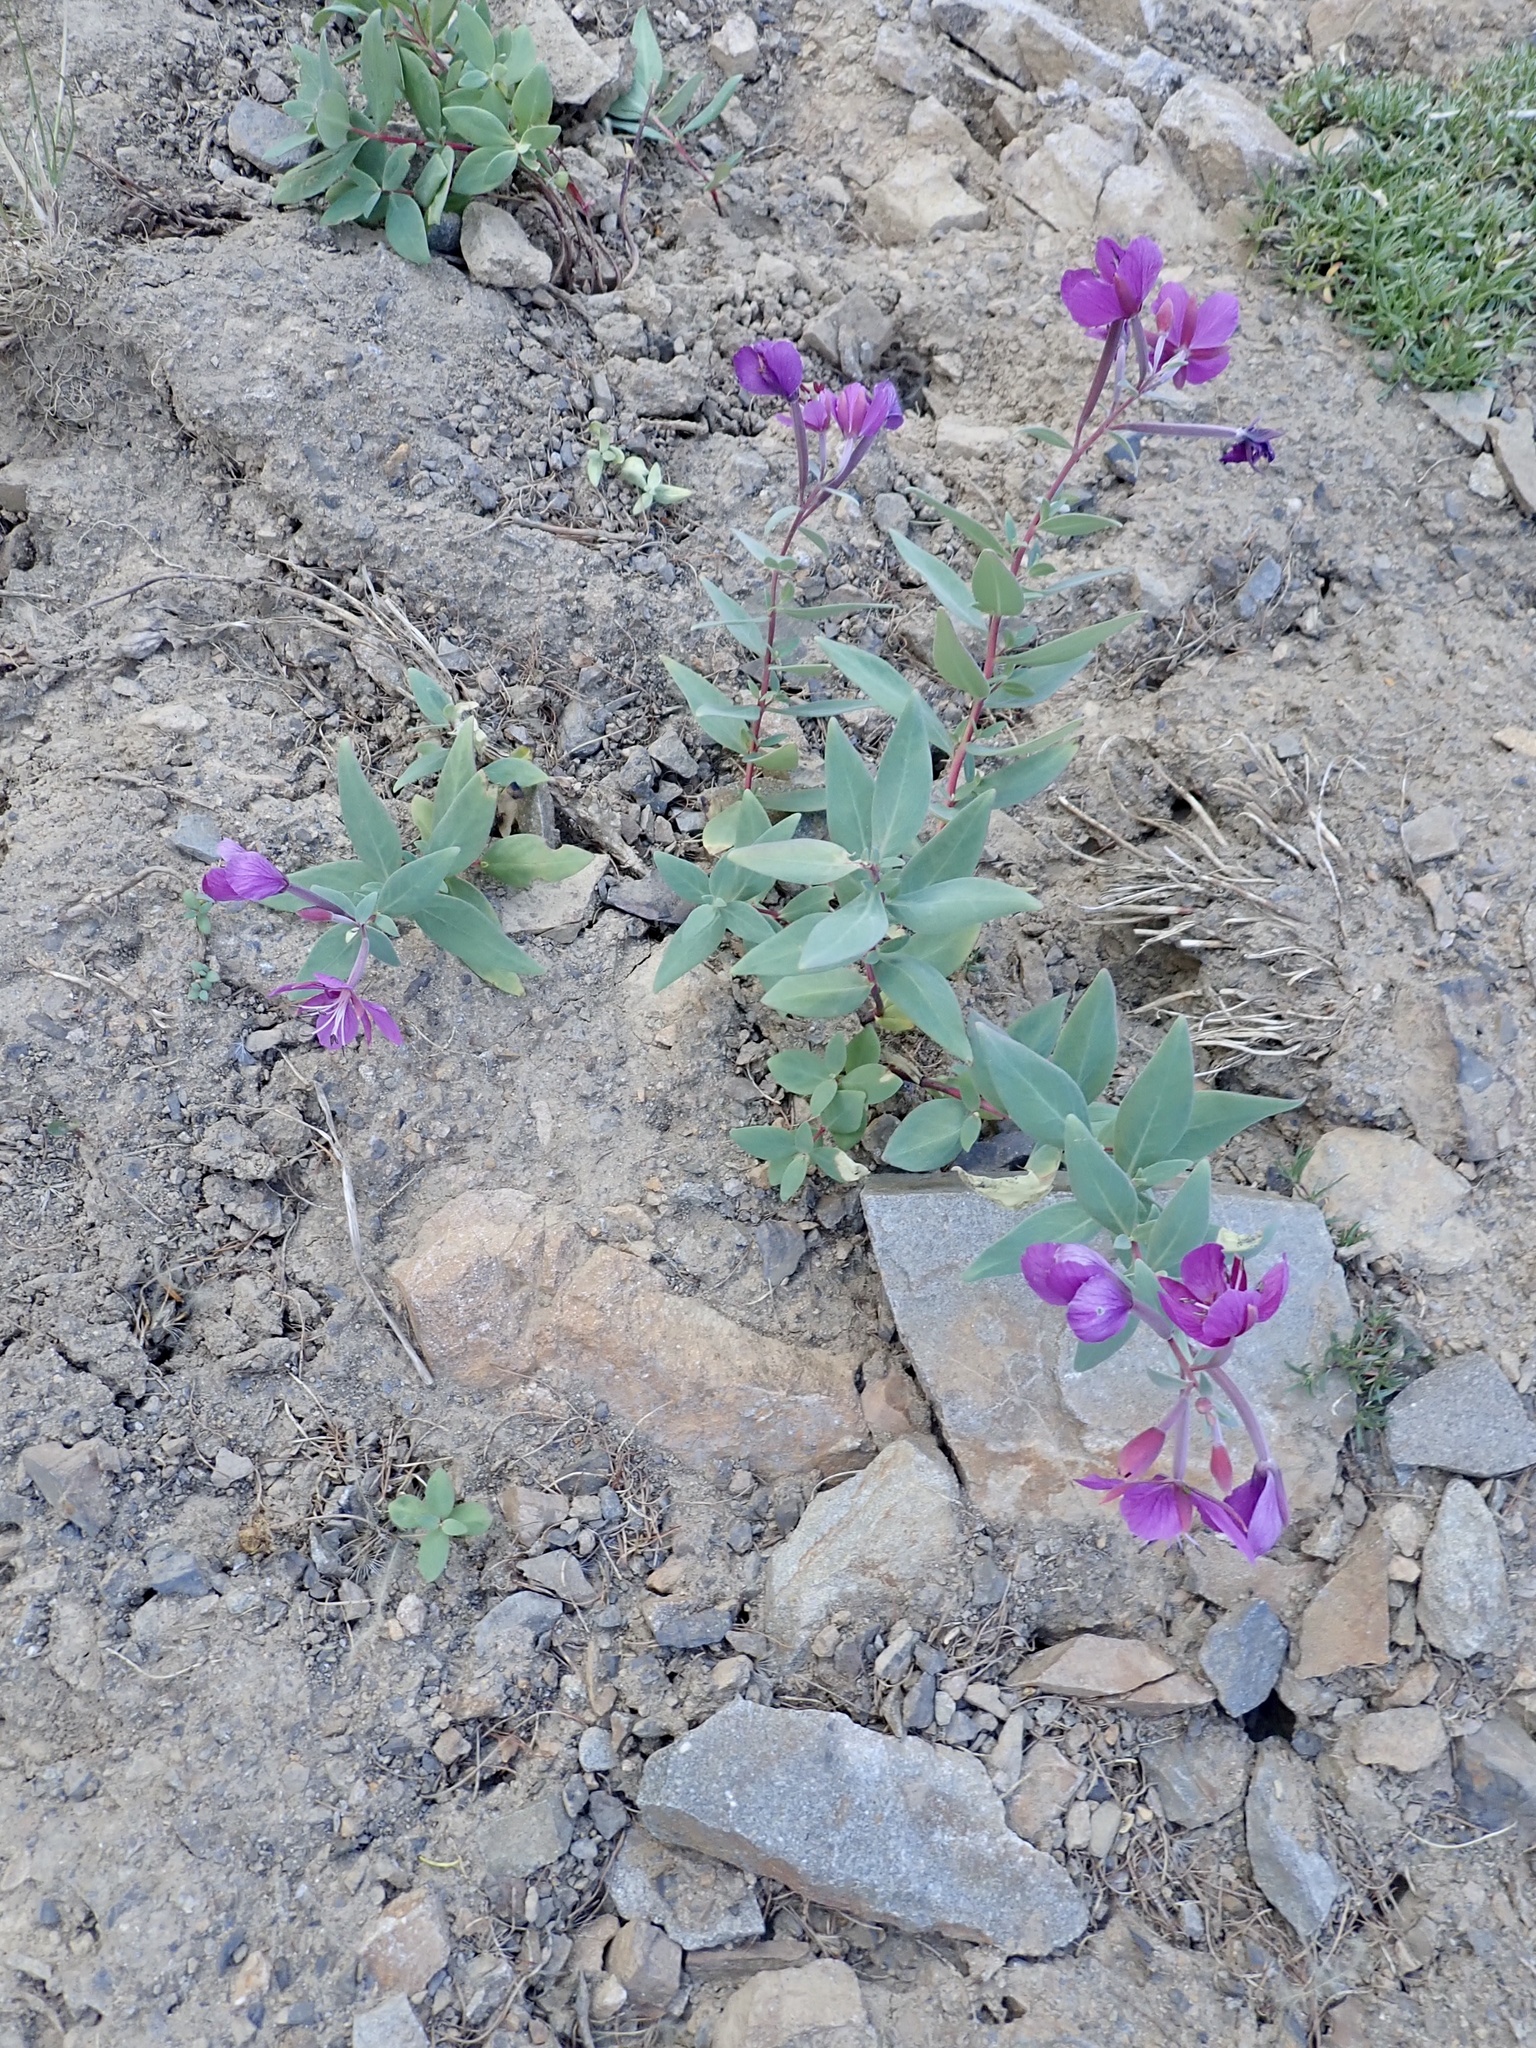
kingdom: Plantae
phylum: Tracheophyta
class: Magnoliopsida
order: Myrtales
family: Onagraceae
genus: Chamaenerion
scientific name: Chamaenerion latifolium
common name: Dwarf fireweed
